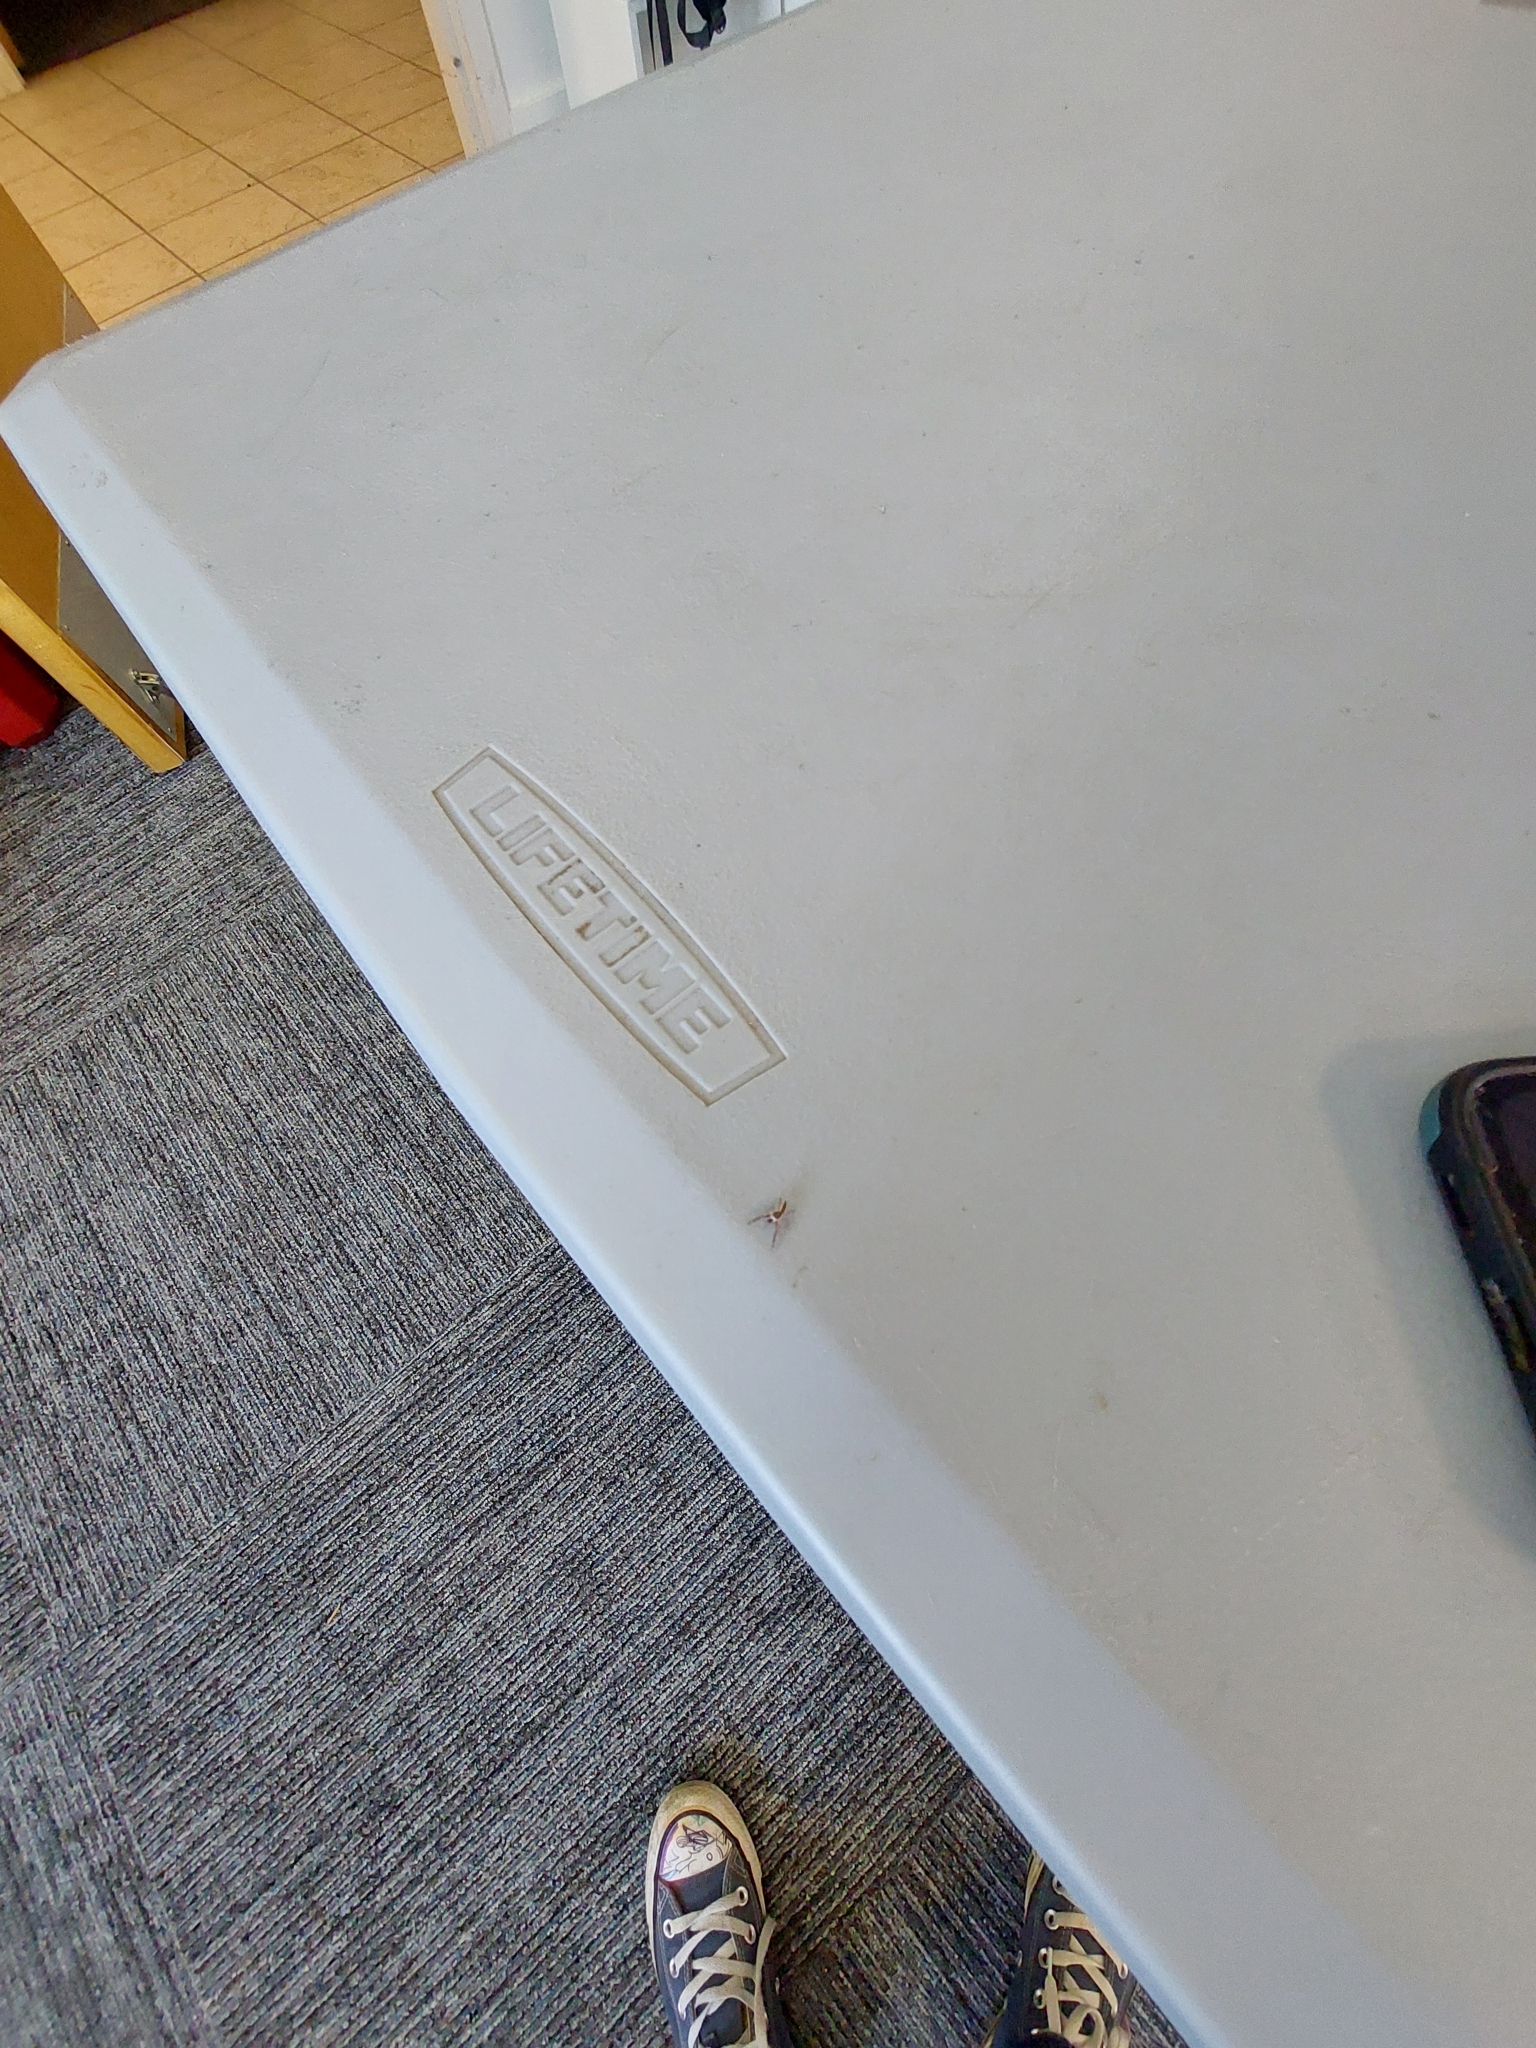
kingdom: Animalia
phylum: Arthropoda
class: Arachnida
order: Araneae
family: Salticidae
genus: Hentzia
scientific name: Hentzia palmarum
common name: Common hentz jumping spider
